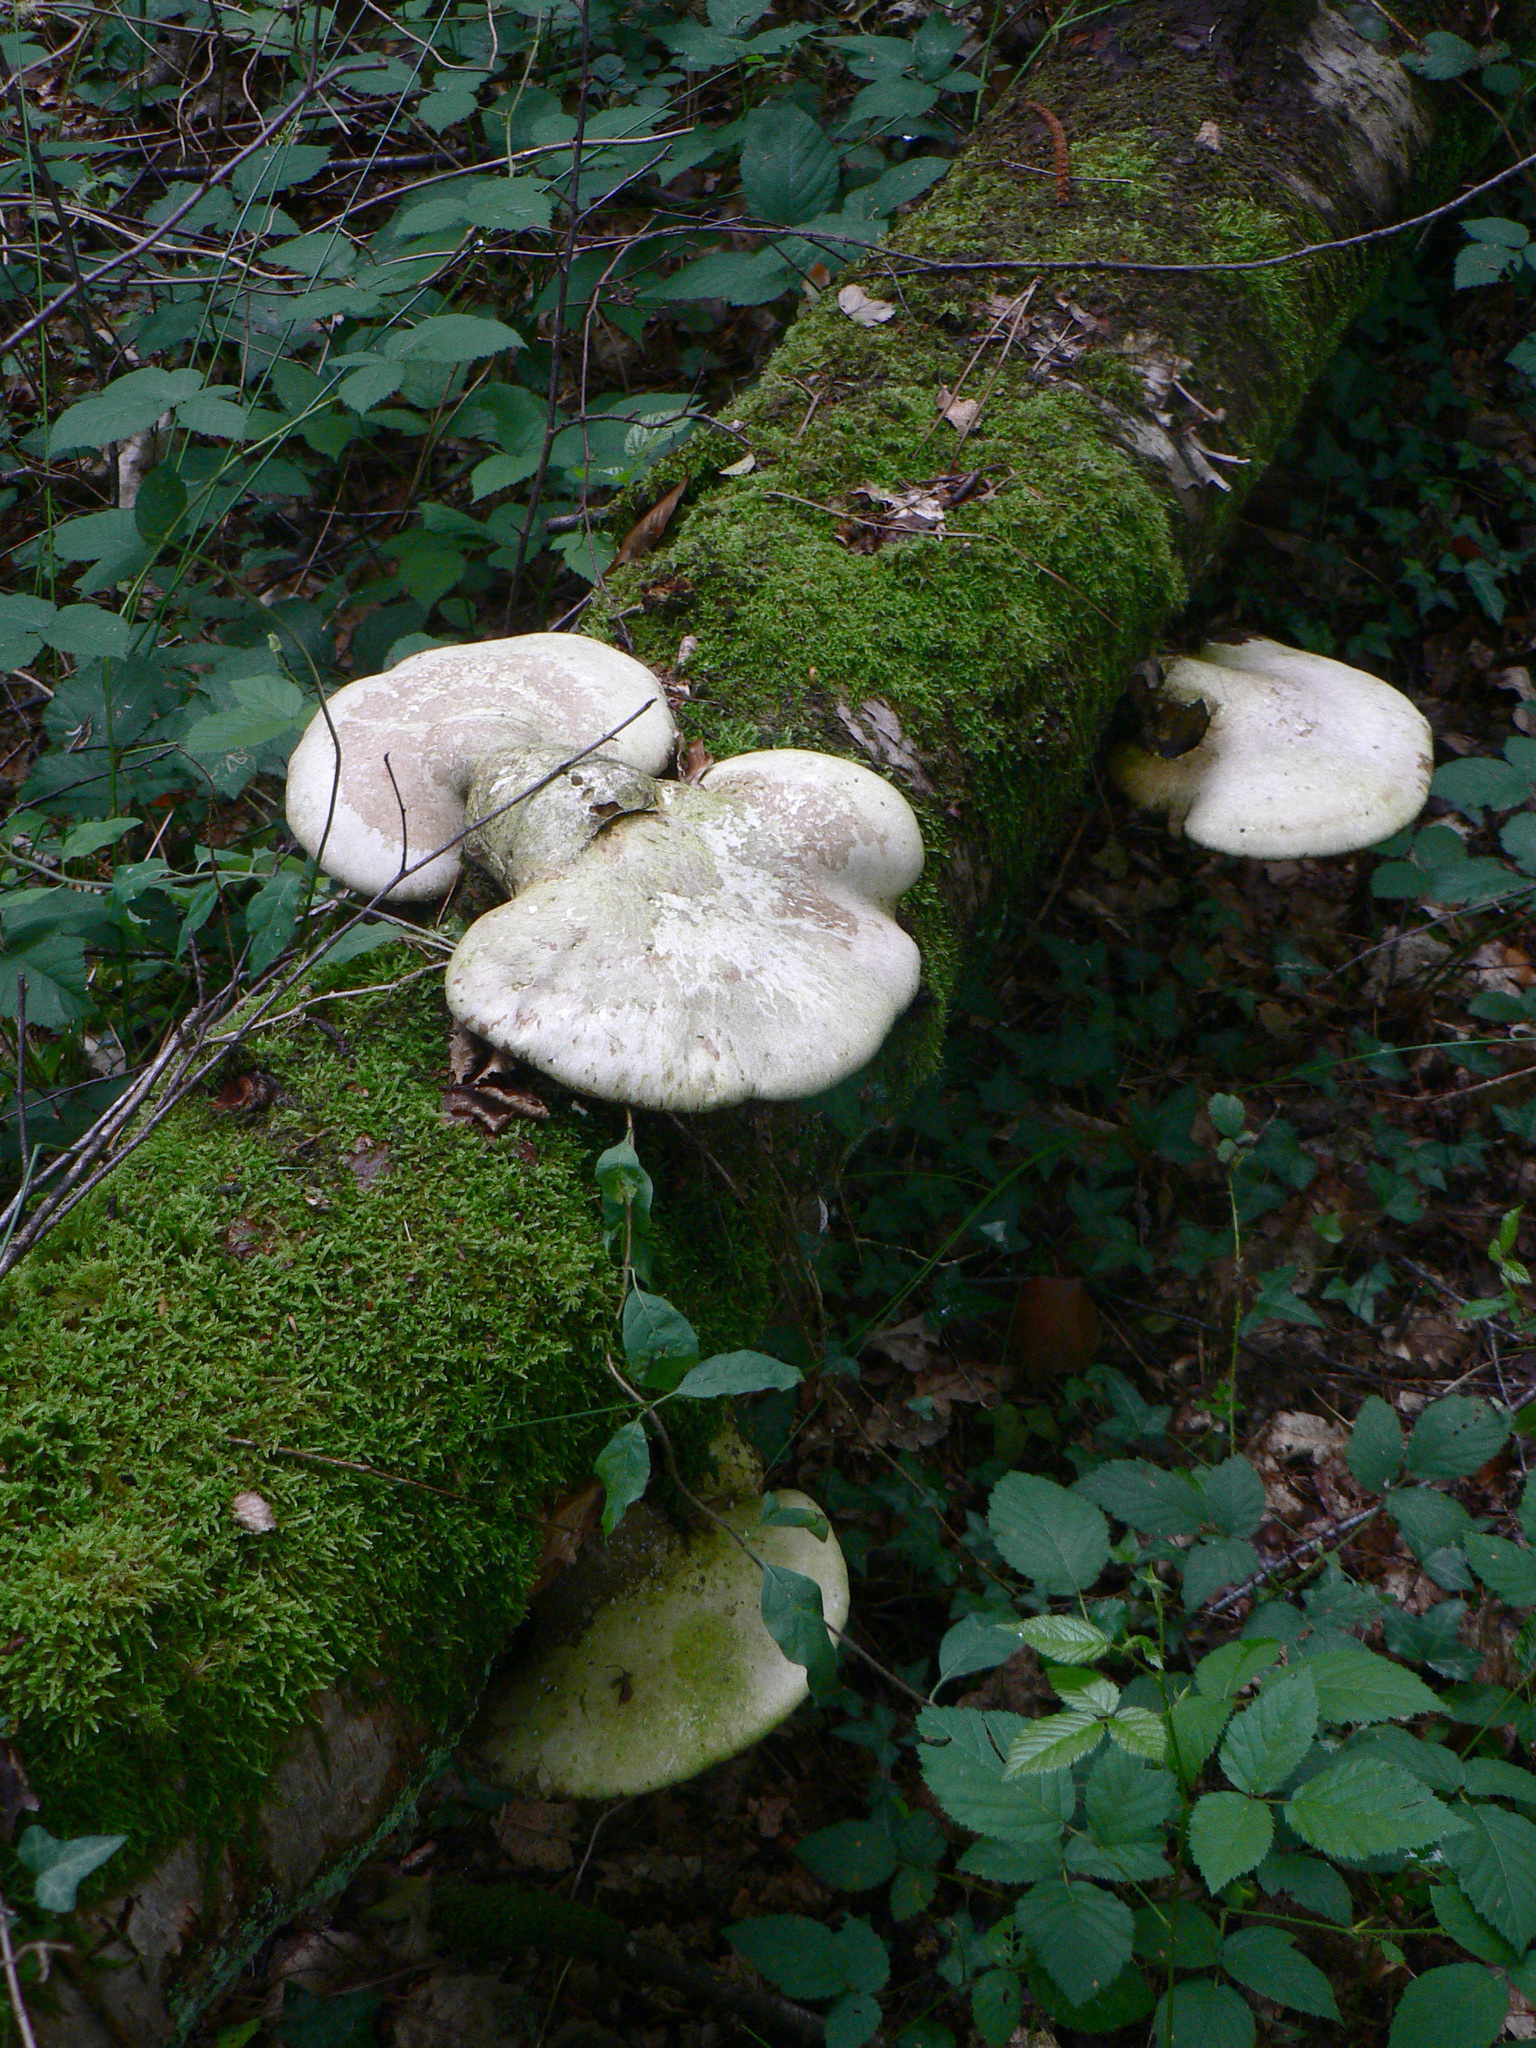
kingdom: Fungi
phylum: Basidiomycota
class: Agaricomycetes
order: Polyporales
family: Fomitopsidaceae
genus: Fomitopsis
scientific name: Fomitopsis betulina
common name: Birch polypore
